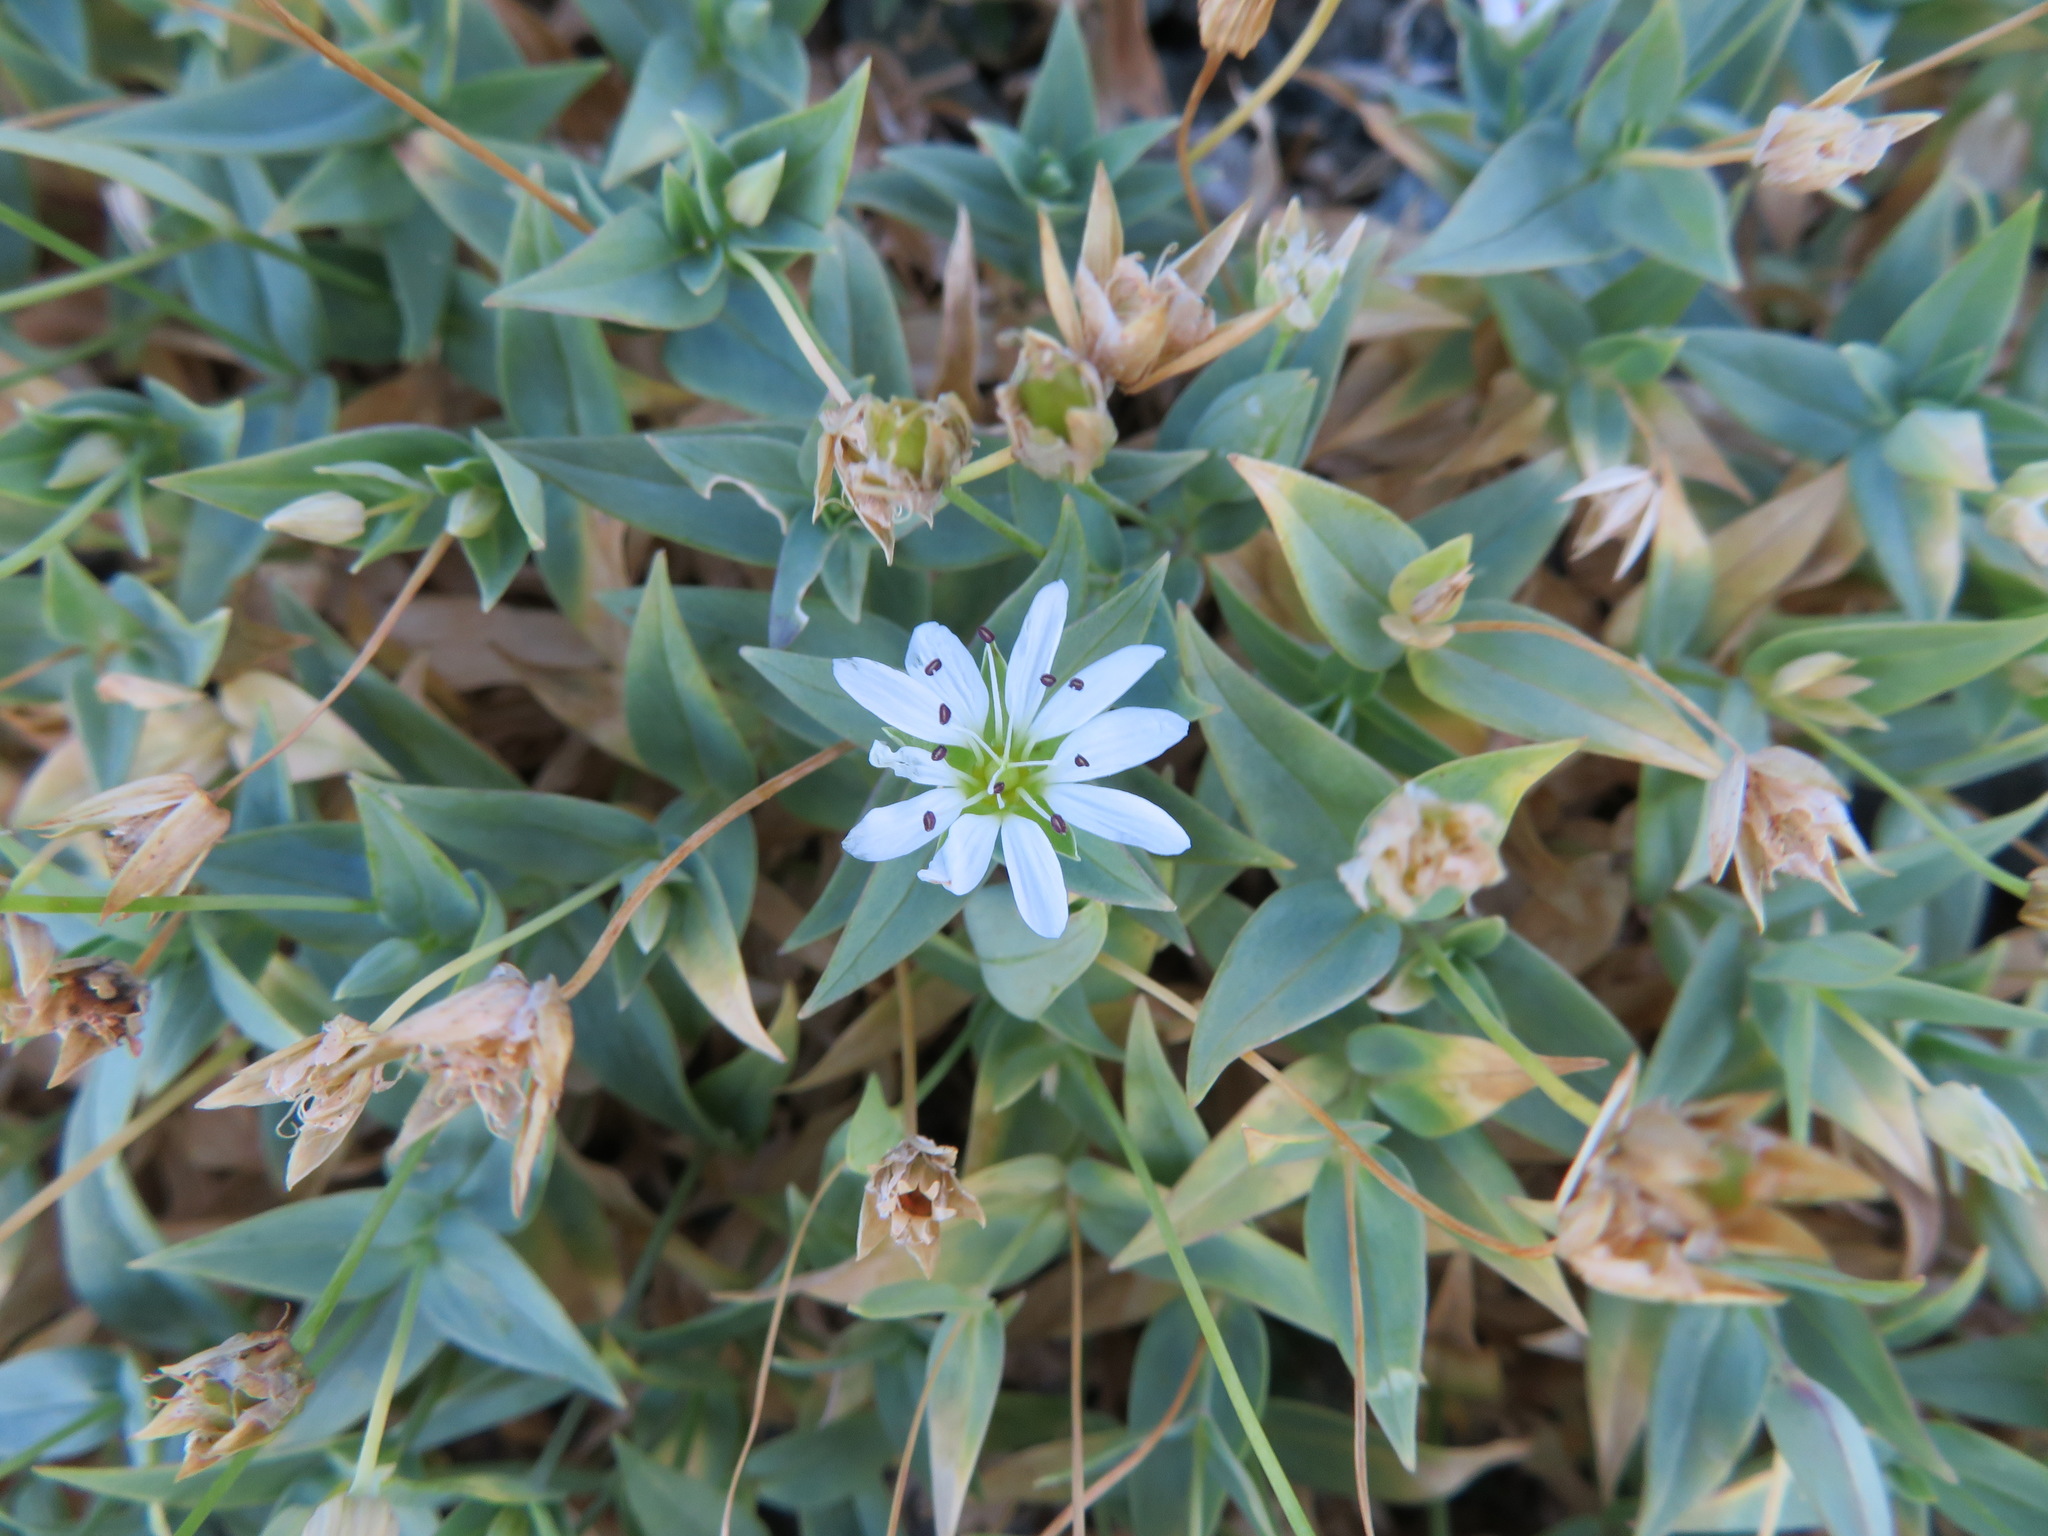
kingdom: Plantae
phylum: Tracheophyta
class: Magnoliopsida
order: Caryophyllales
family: Caryophyllaceae
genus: Stellaria
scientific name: Stellaria ruscifolia
